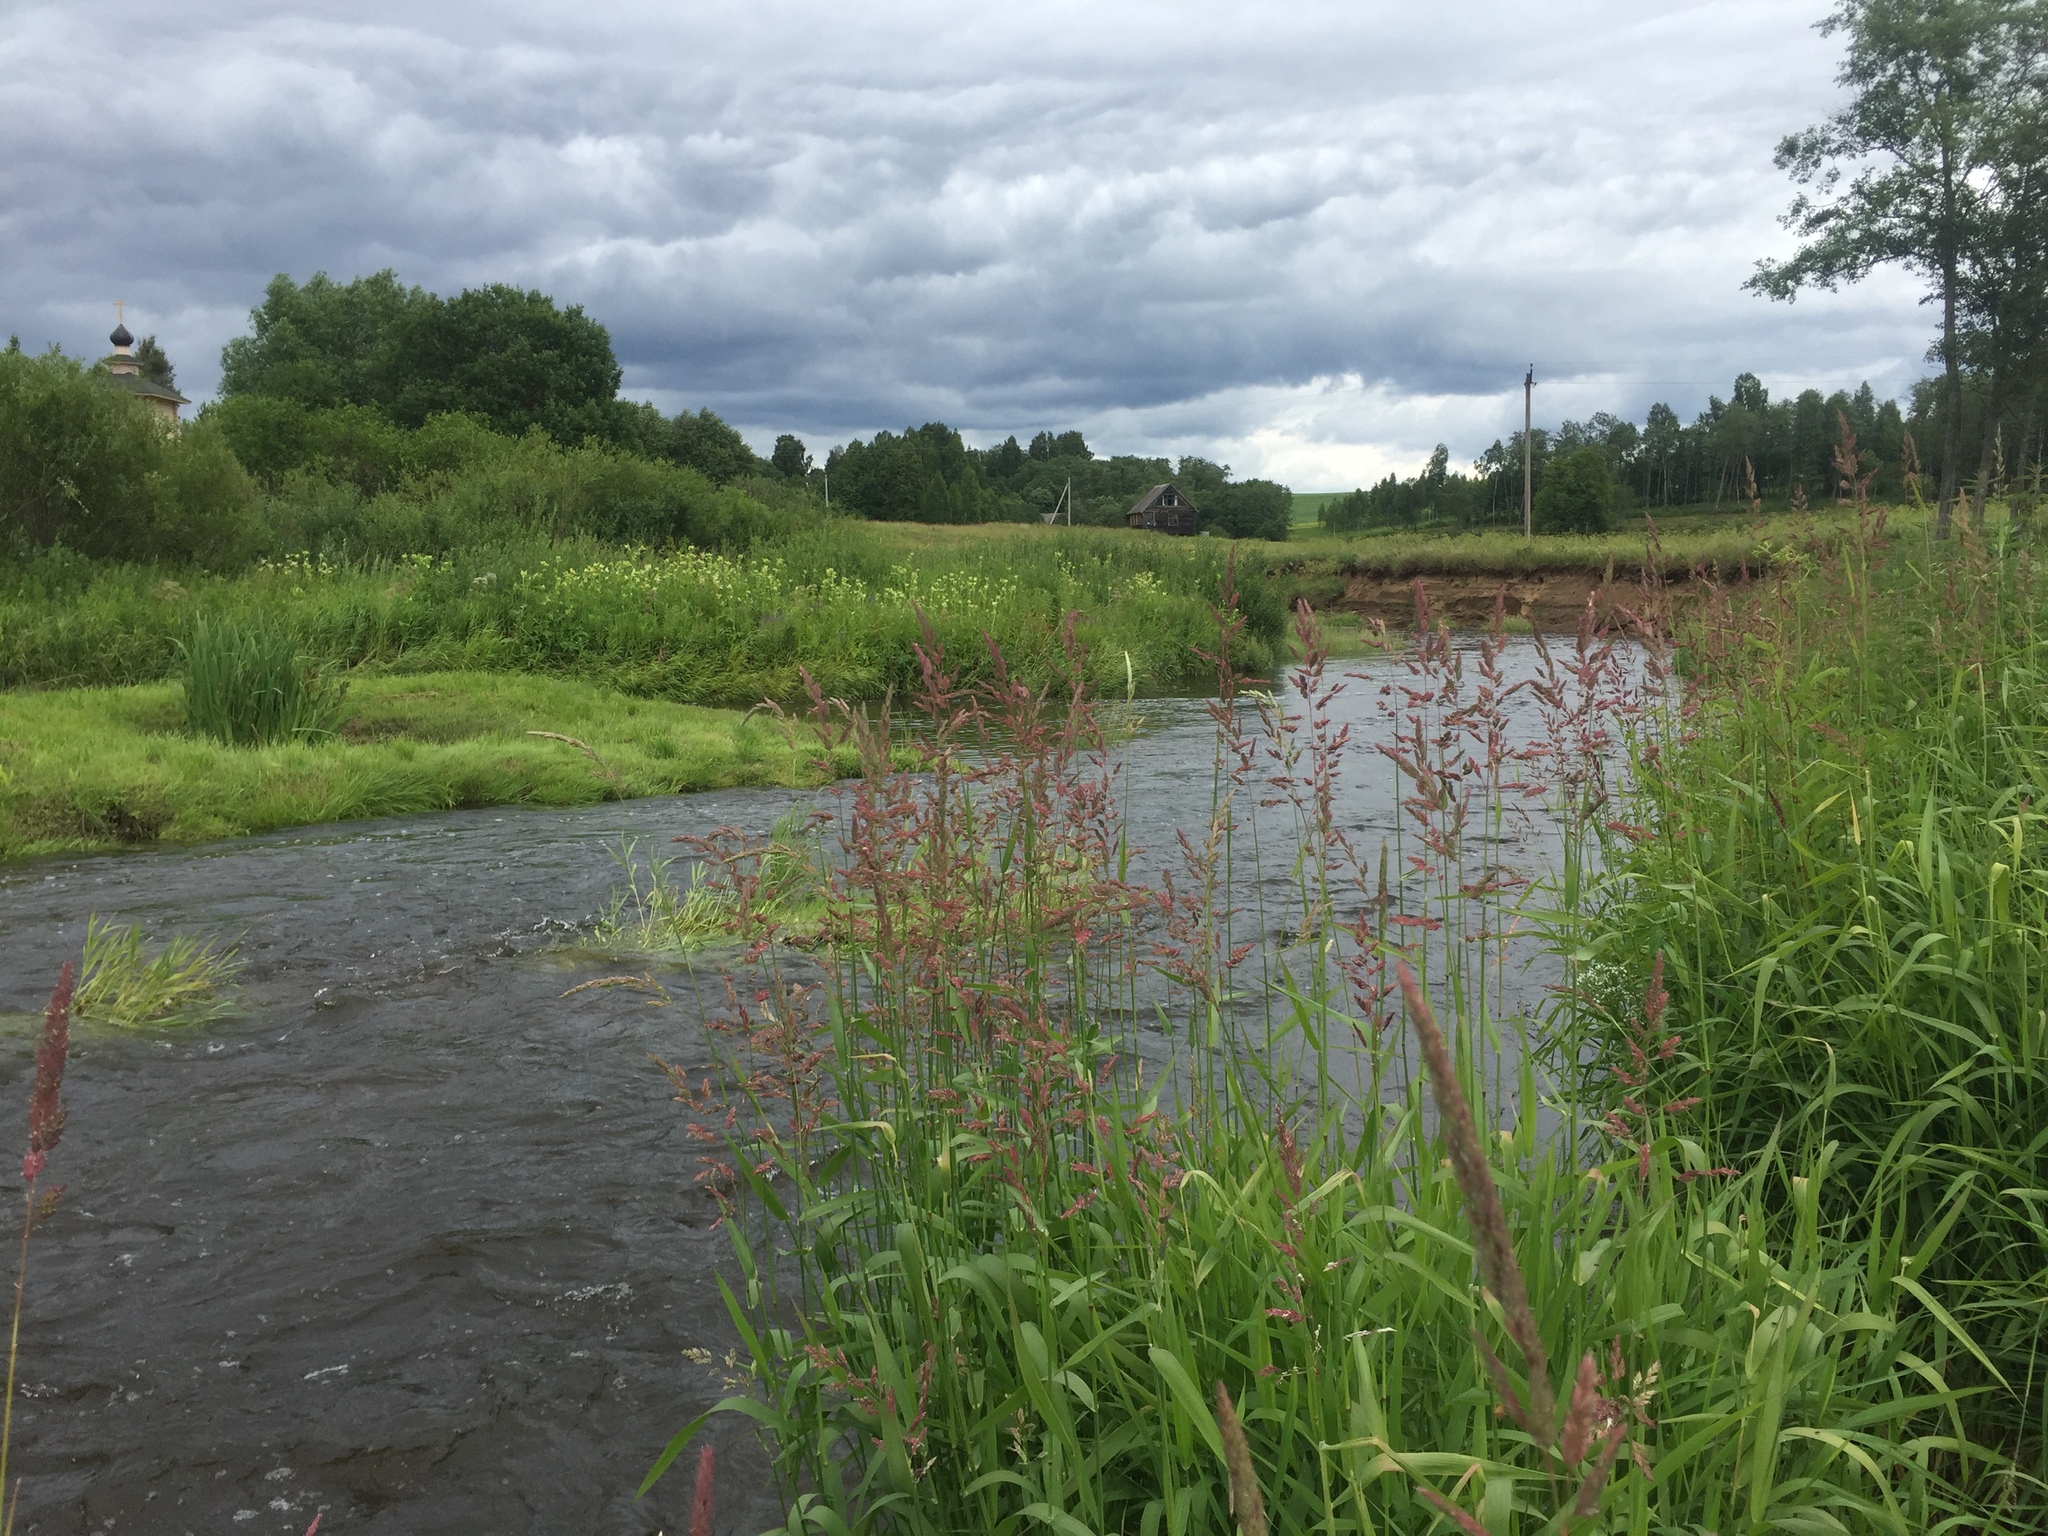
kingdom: Plantae
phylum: Tracheophyta
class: Liliopsida
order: Poales
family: Poaceae
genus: Phalaris
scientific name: Phalaris arundinacea
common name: Reed canary-grass
